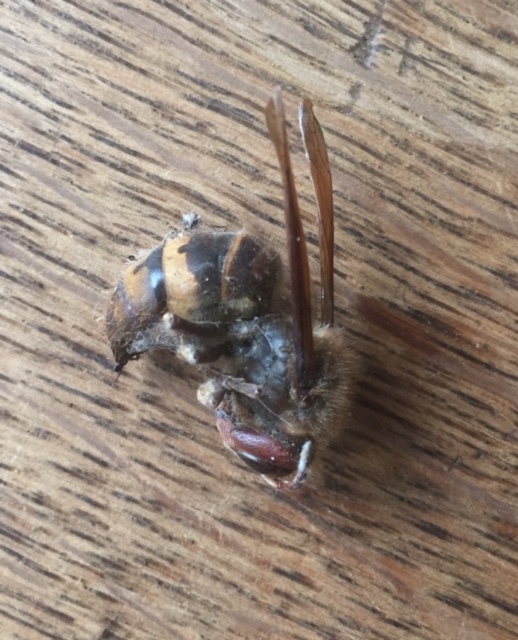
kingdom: Animalia
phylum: Arthropoda
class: Insecta
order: Hymenoptera
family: Vespidae
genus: Vespa
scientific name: Vespa crabro
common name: Hornet
